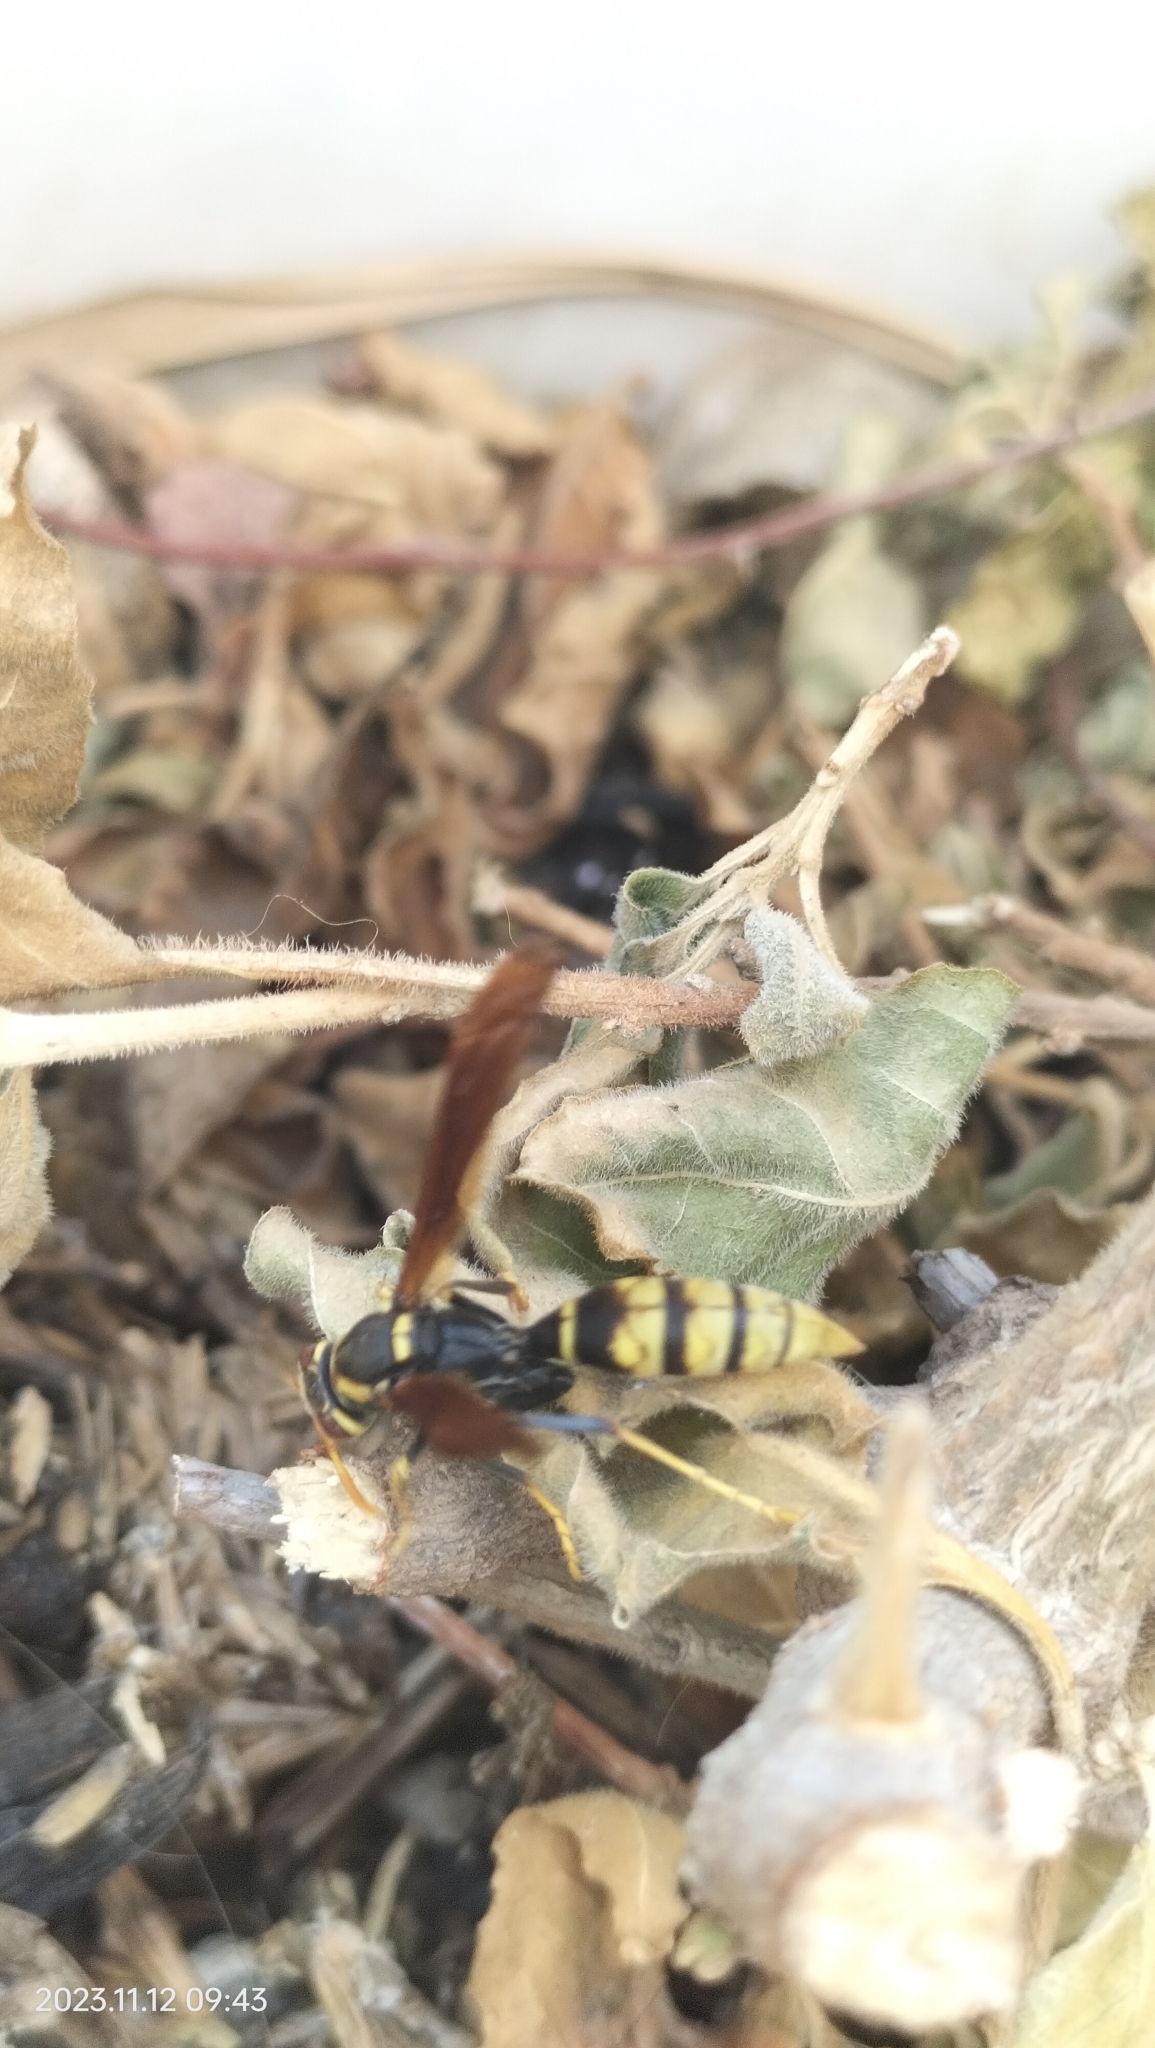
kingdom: Animalia
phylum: Arthropoda
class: Insecta
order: Hymenoptera
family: Eumenidae
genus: Polistes
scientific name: Polistes xanthogaster
